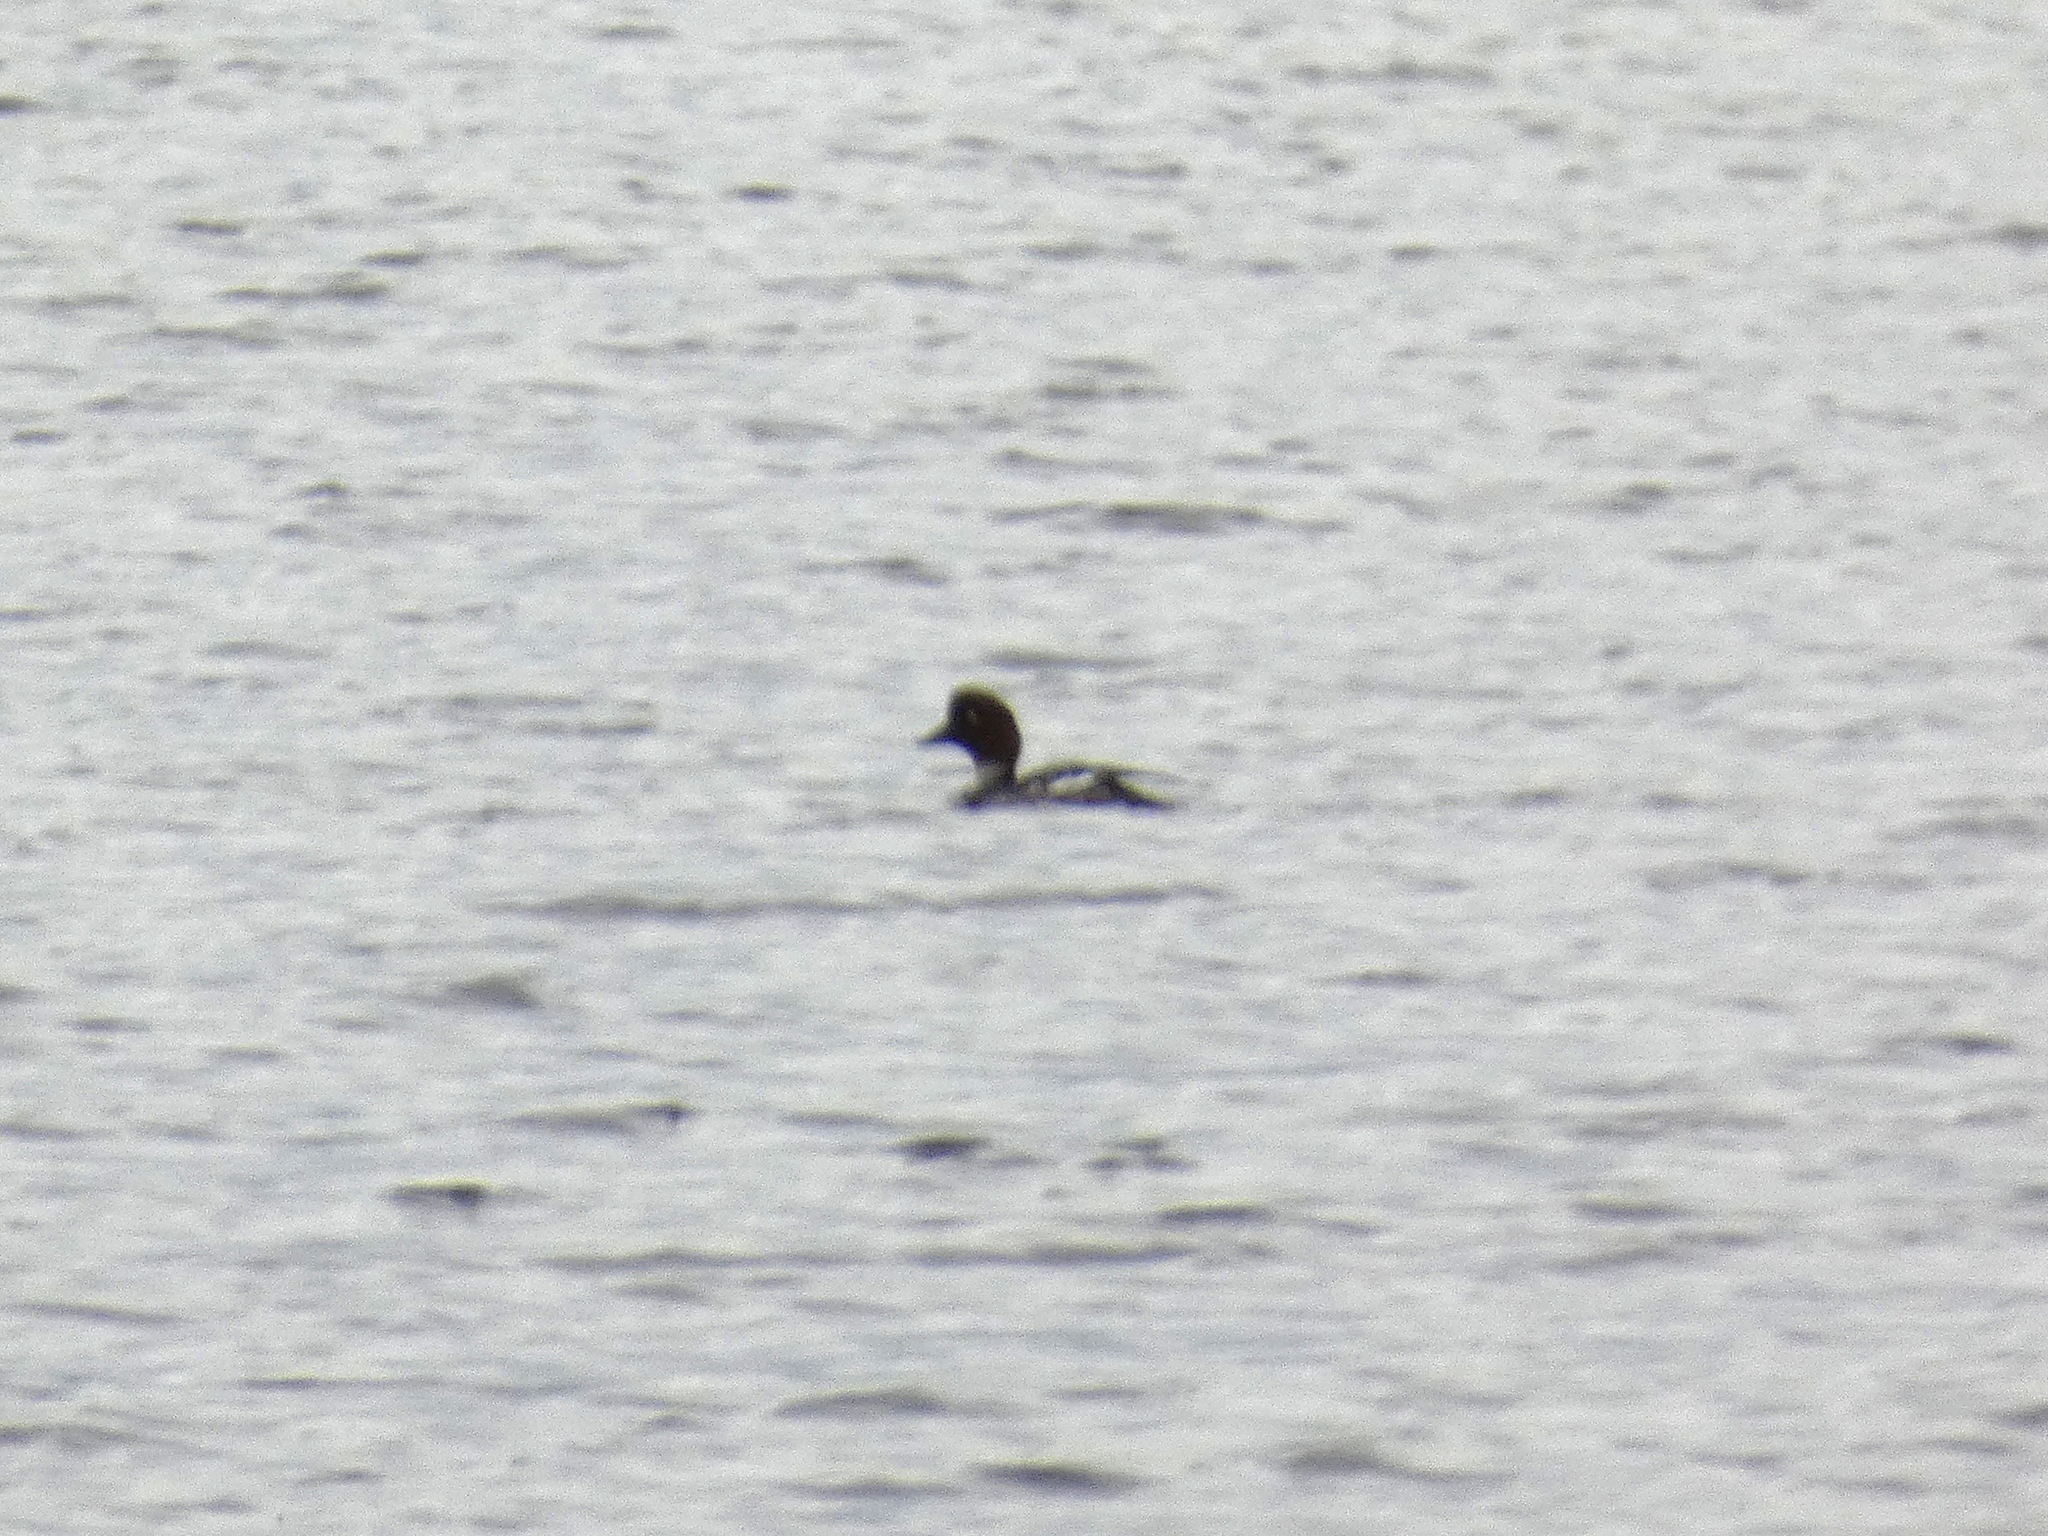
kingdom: Animalia
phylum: Chordata
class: Aves
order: Anseriformes
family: Anatidae
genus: Bucephala
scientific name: Bucephala clangula
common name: Common goldeneye
